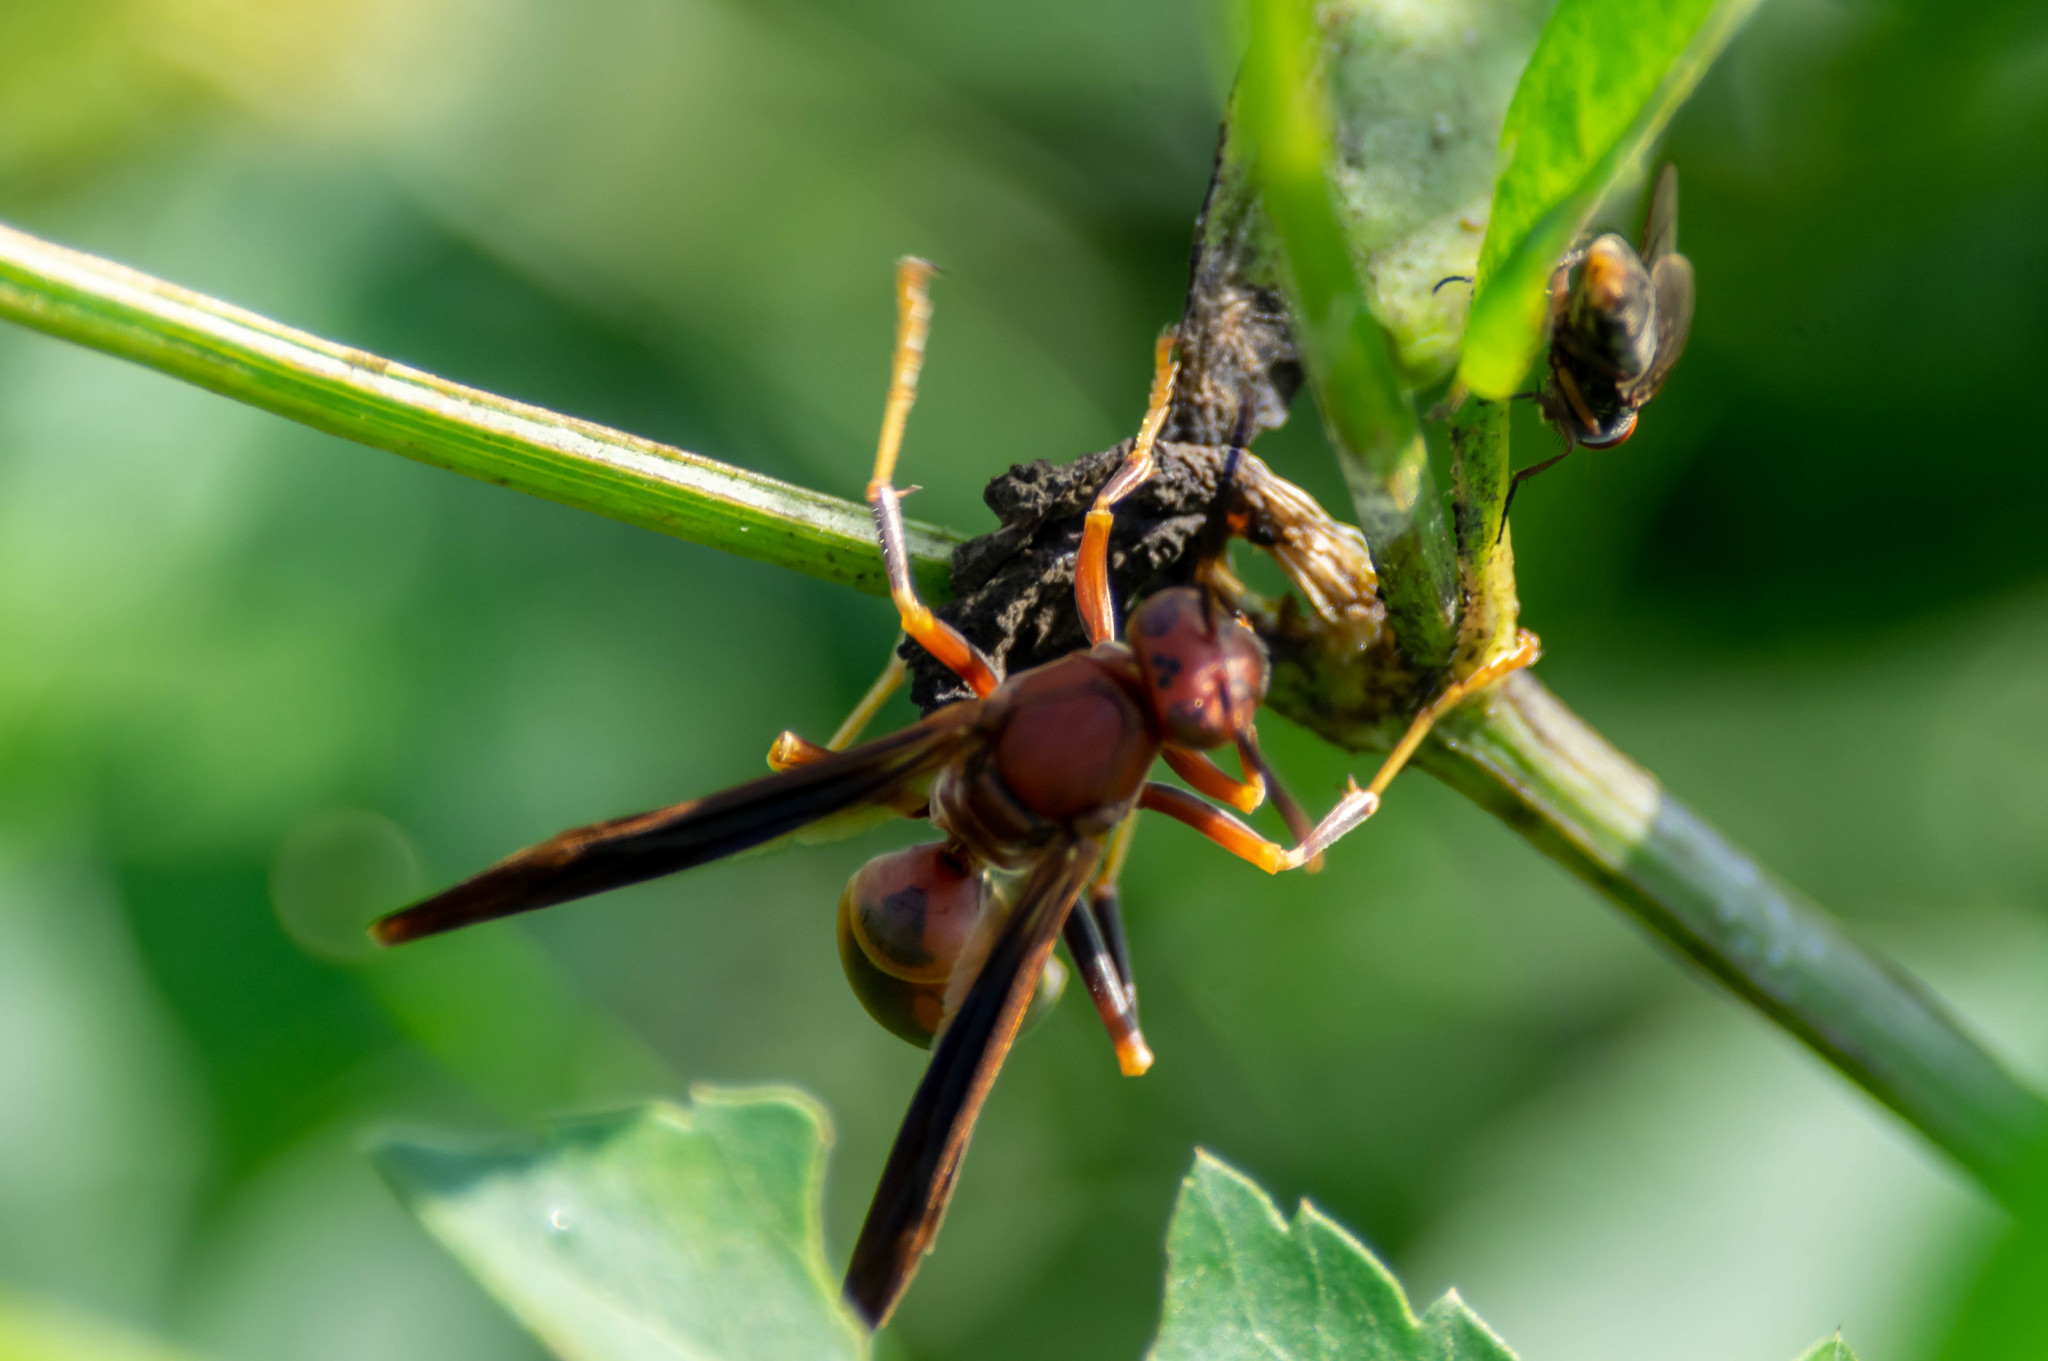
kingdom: Animalia
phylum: Arthropoda
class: Insecta
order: Hymenoptera
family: Eumenidae
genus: Polistes
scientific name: Polistes metricus
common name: Metric paper wasp
